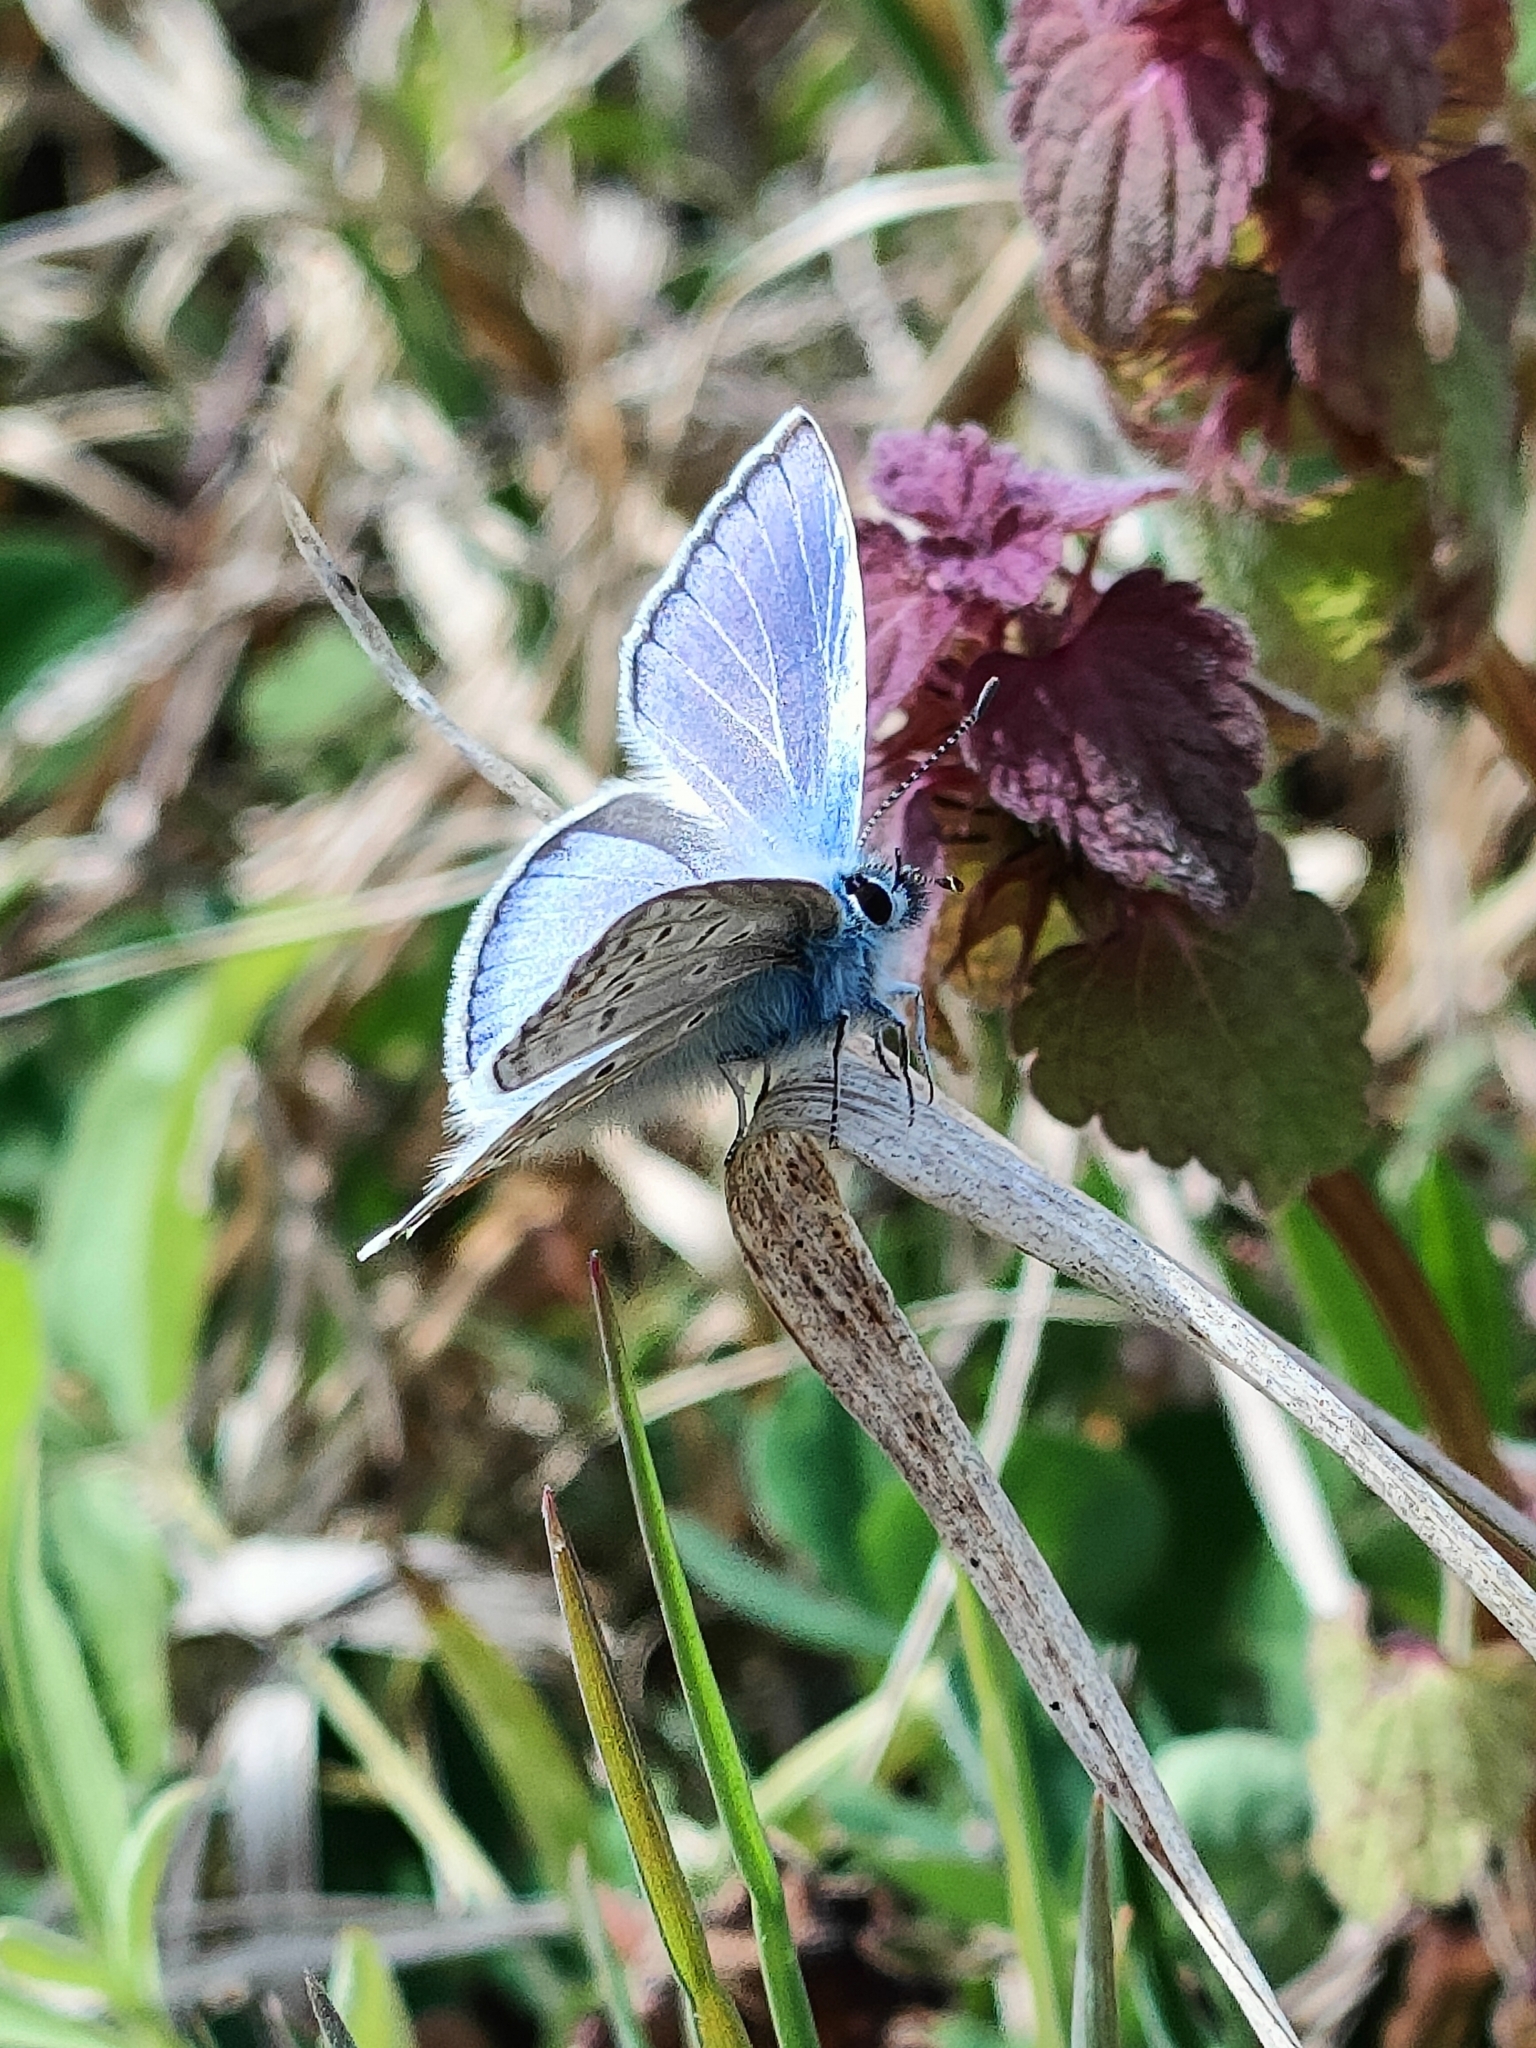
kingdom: Animalia
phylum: Arthropoda
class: Insecta
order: Lepidoptera
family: Lycaenidae
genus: Polyommatus
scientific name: Polyommatus icarus
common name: Common blue
